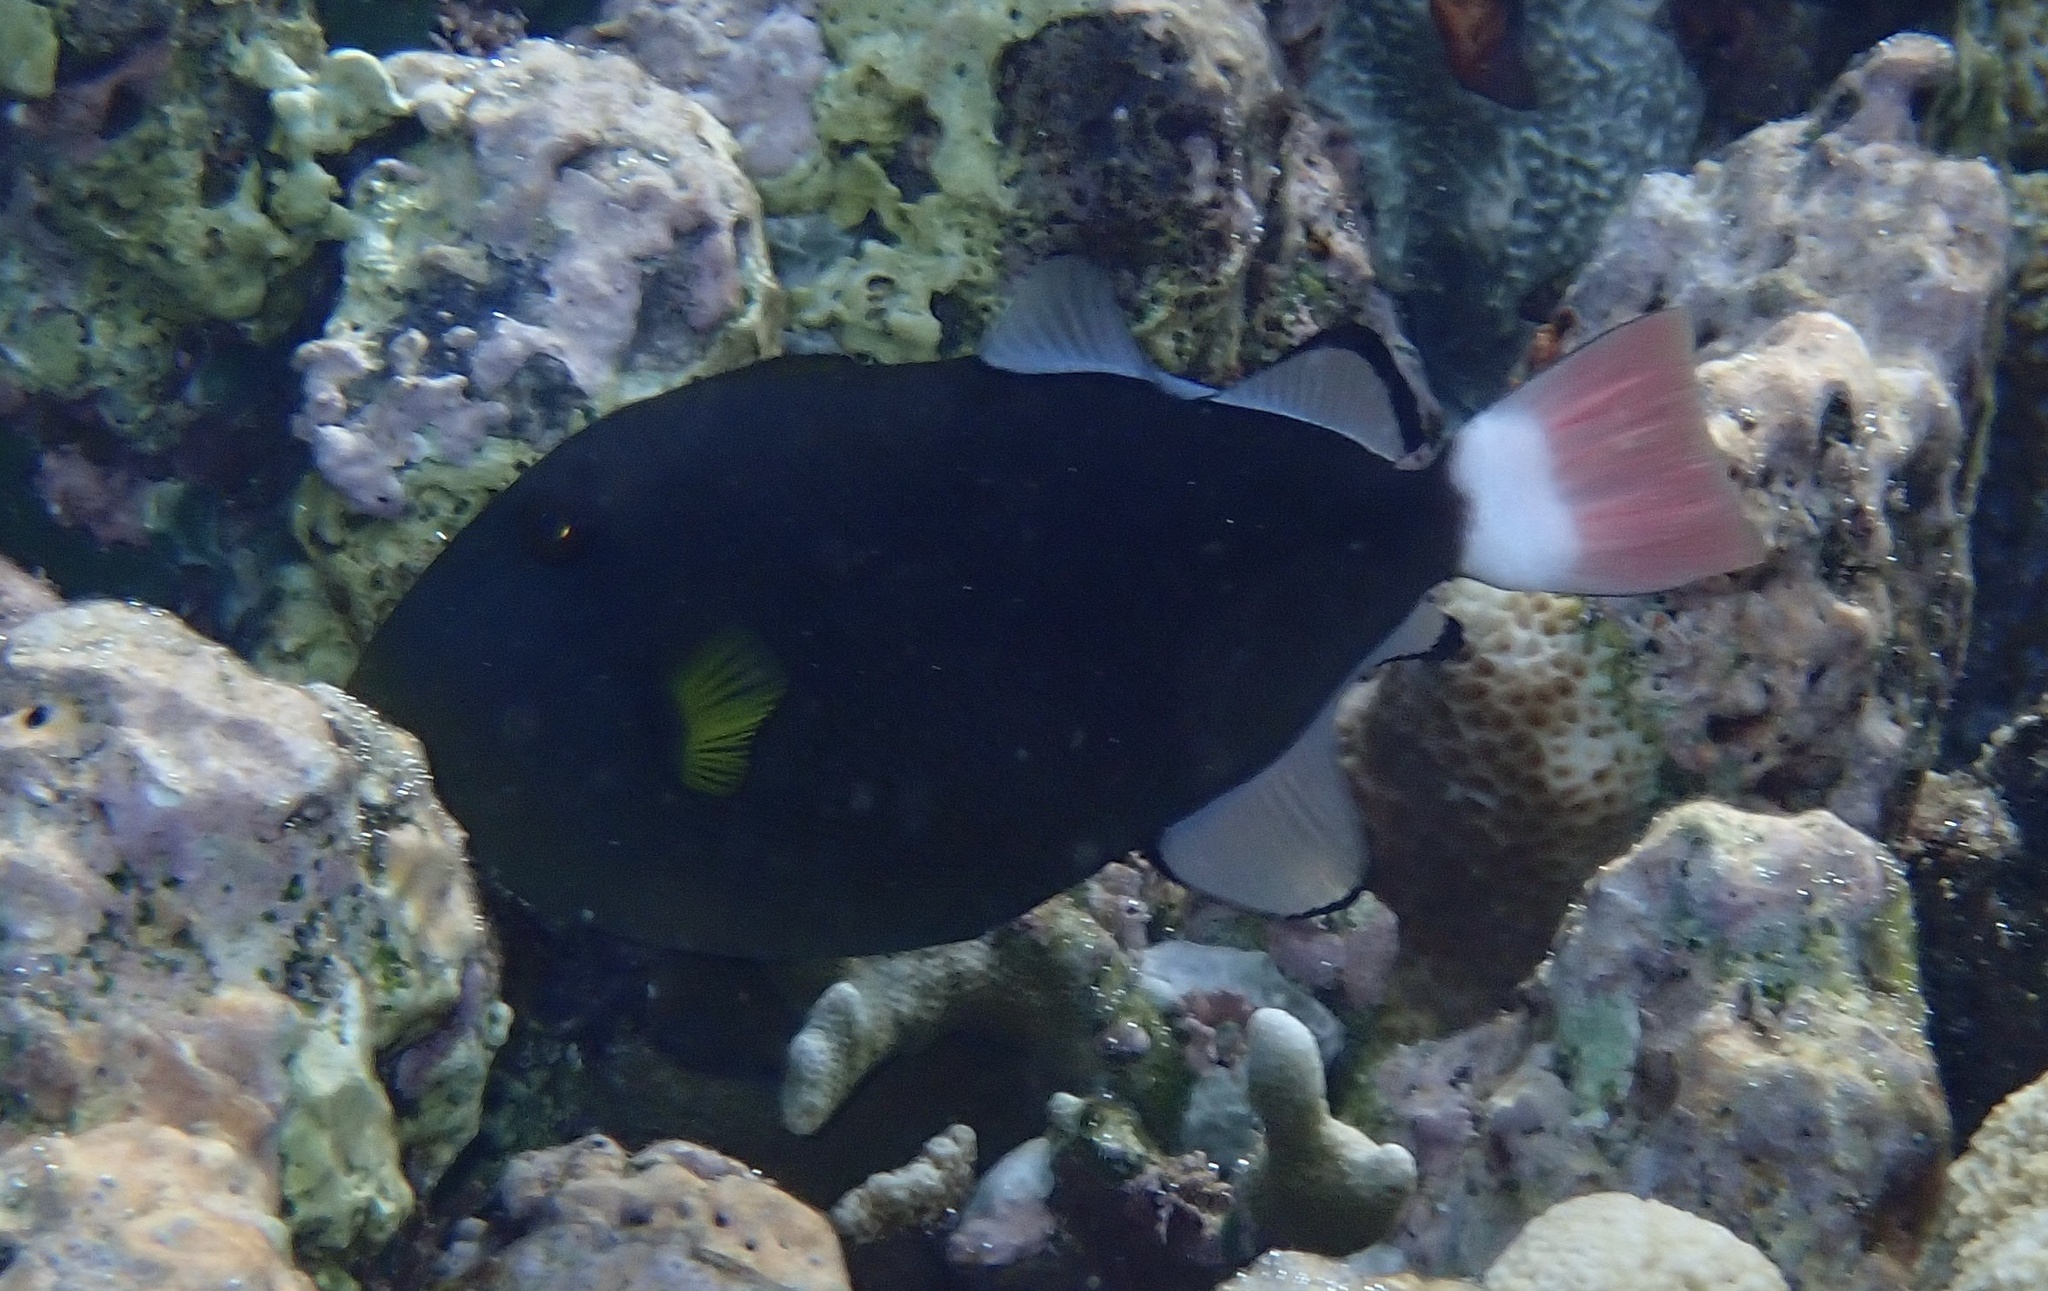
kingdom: Animalia
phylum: Chordata
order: Tetraodontiformes
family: Balistidae
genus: Melichthys
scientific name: Melichthys vidua
